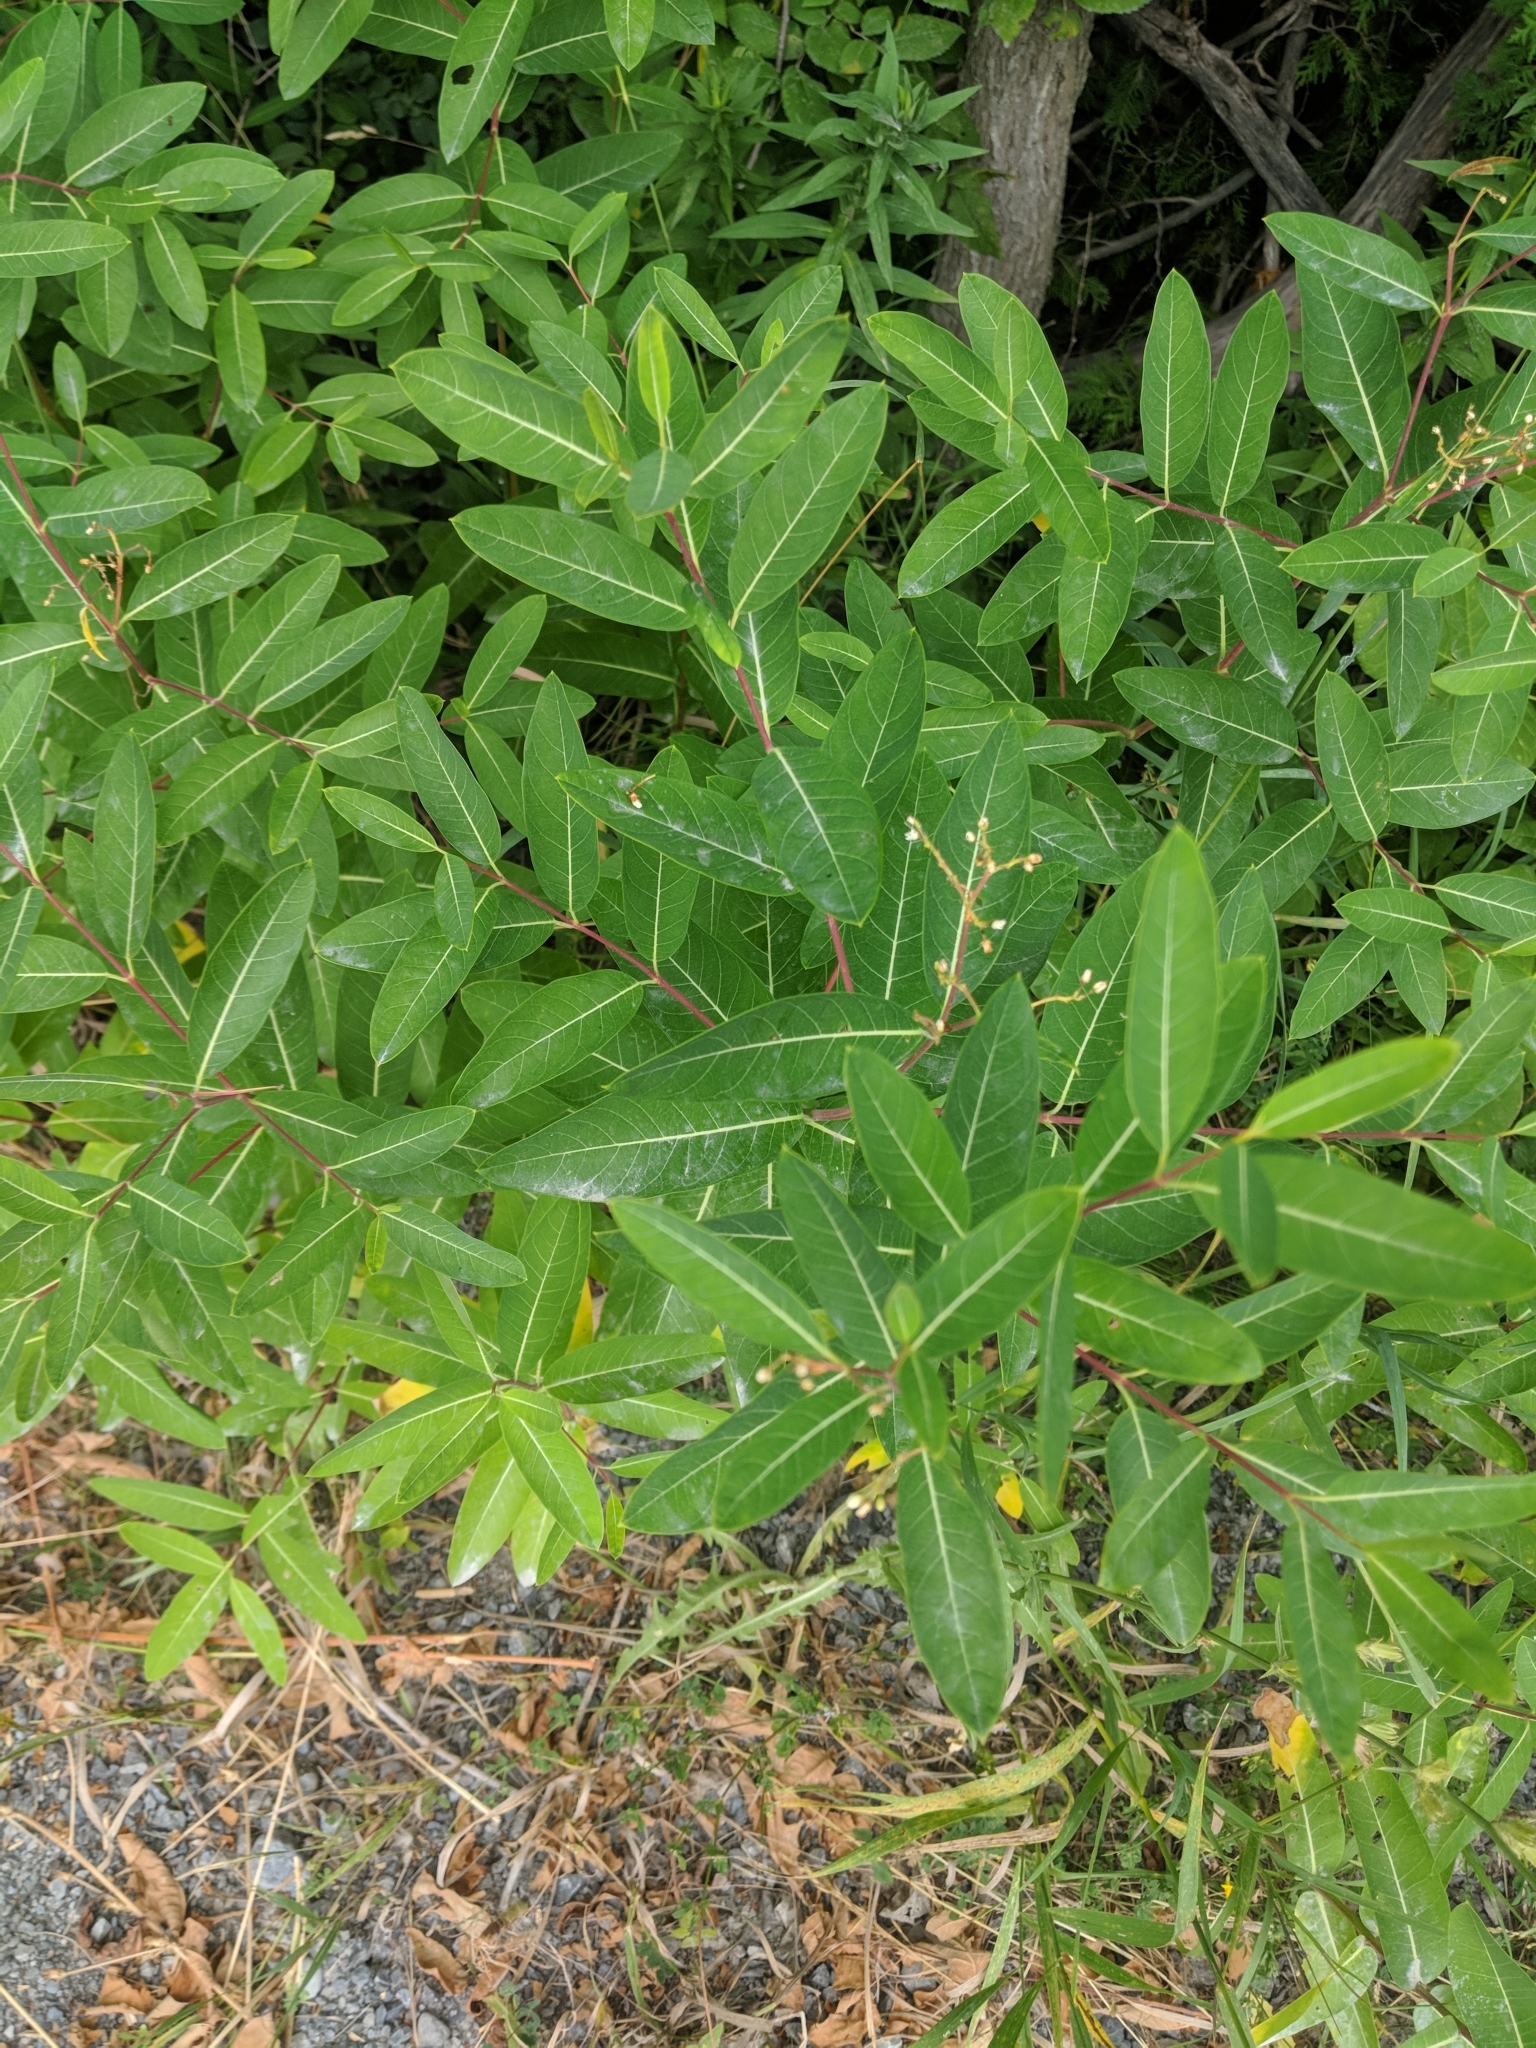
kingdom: Plantae
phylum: Tracheophyta
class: Magnoliopsida
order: Gentianales
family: Apocynaceae
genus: Apocynum
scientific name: Apocynum cannabinum
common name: Hemp dogbane
